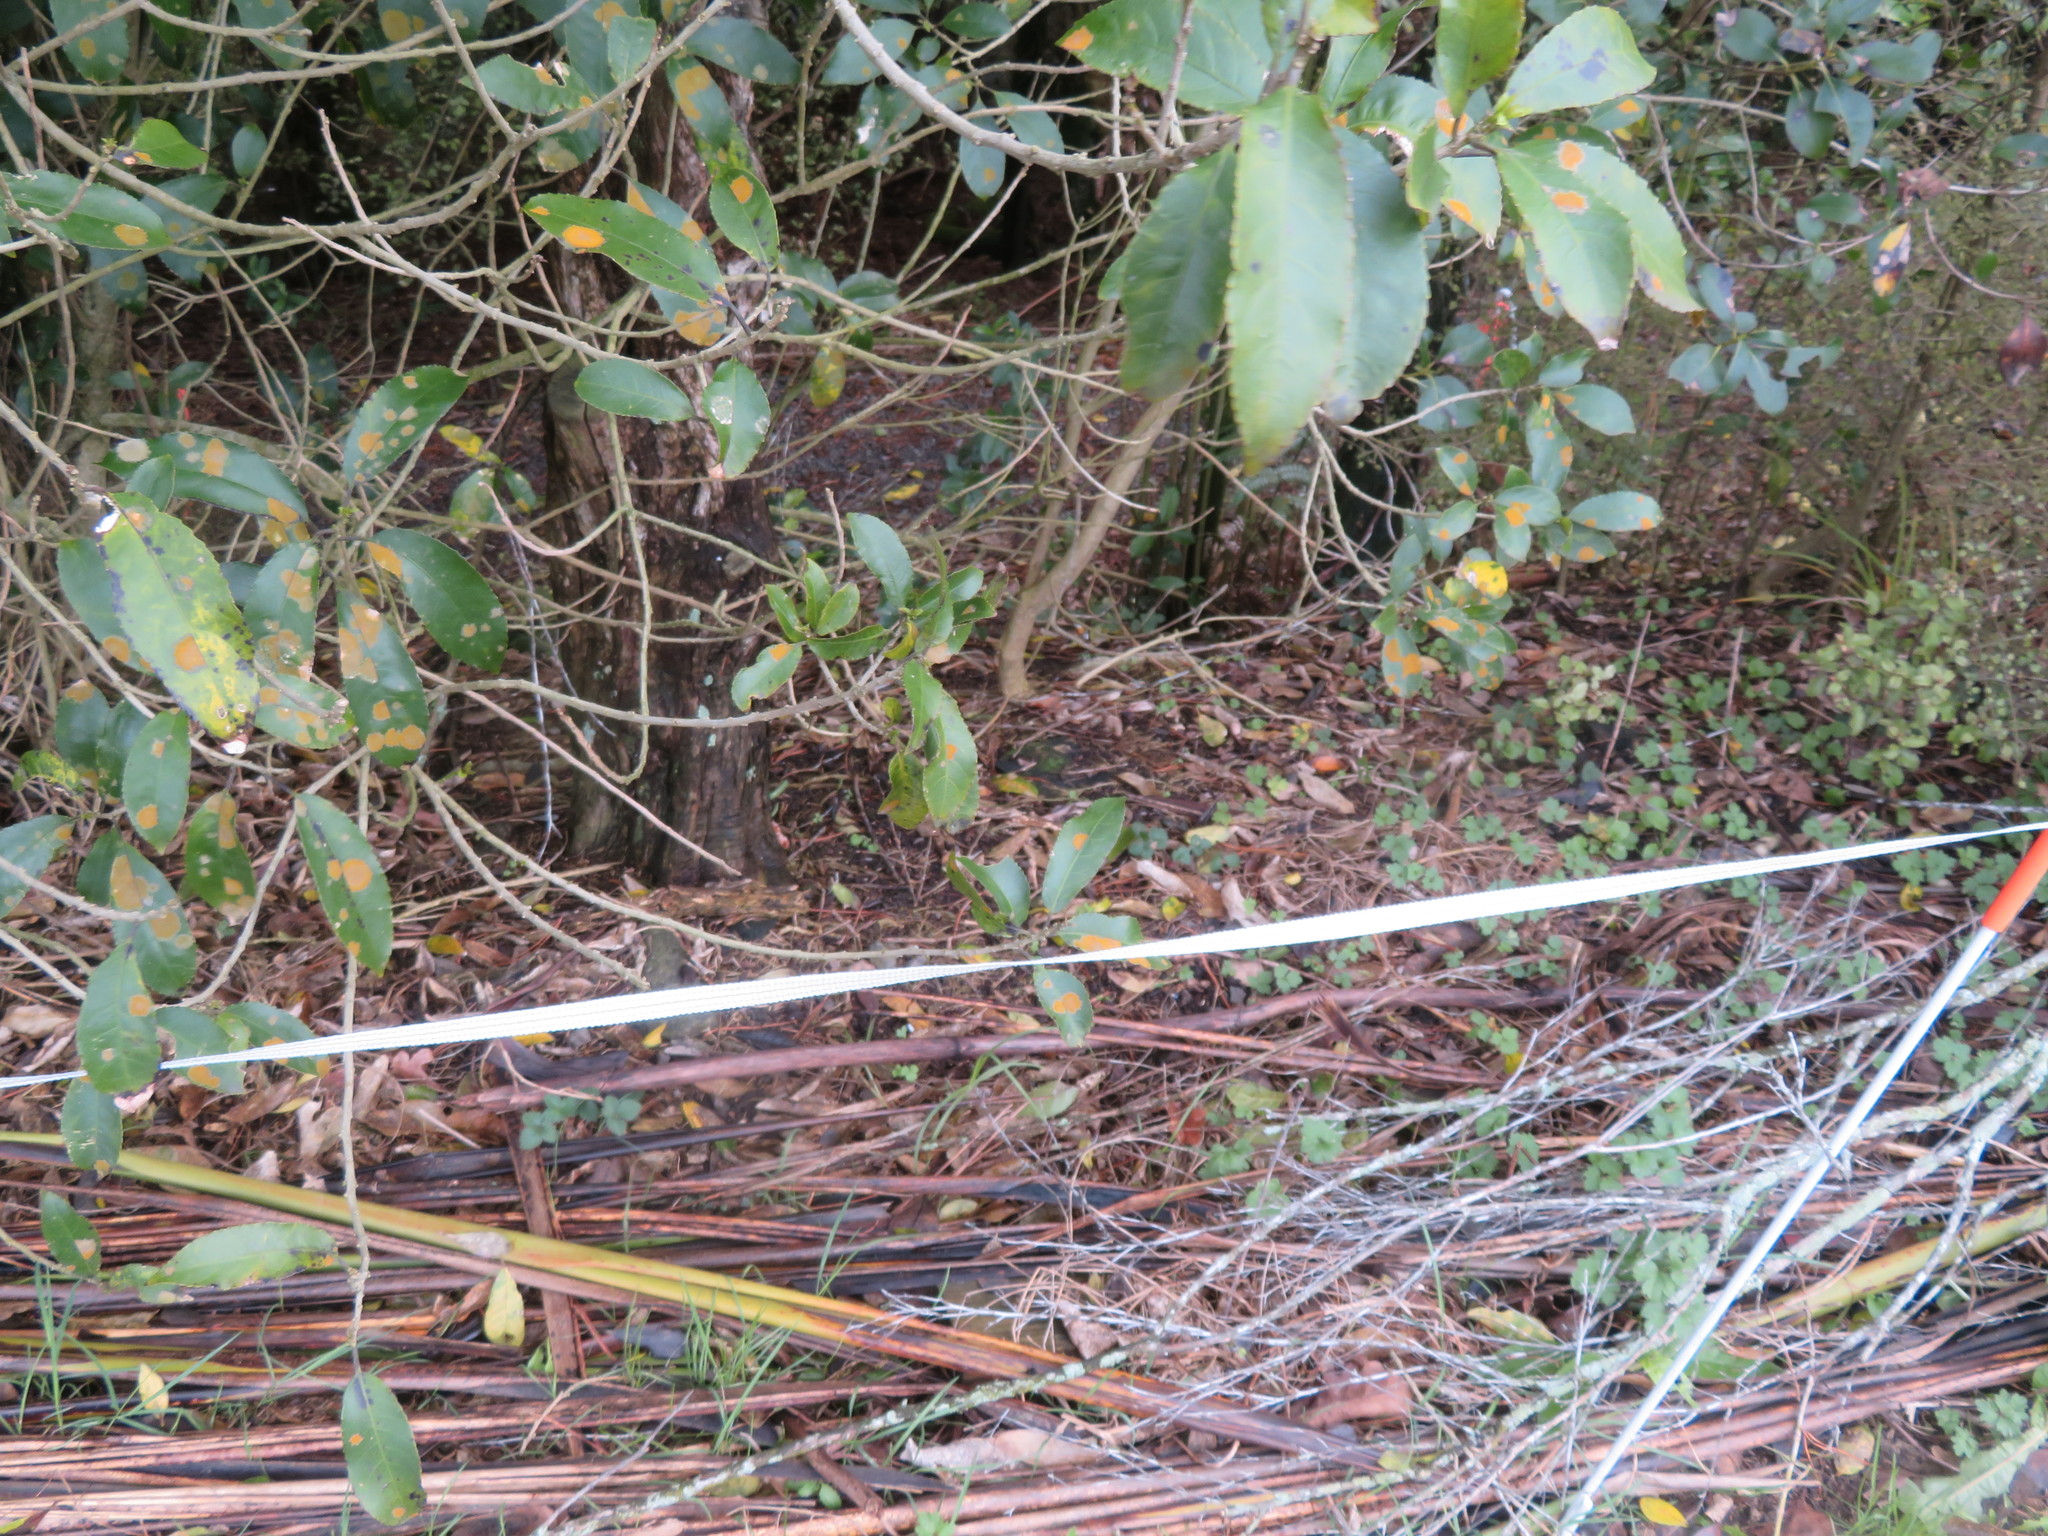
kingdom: Plantae
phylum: Tracheophyta
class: Magnoliopsida
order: Malpighiales
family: Violaceae
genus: Melicytus
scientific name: Melicytus ramiflorus
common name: Mahoe
